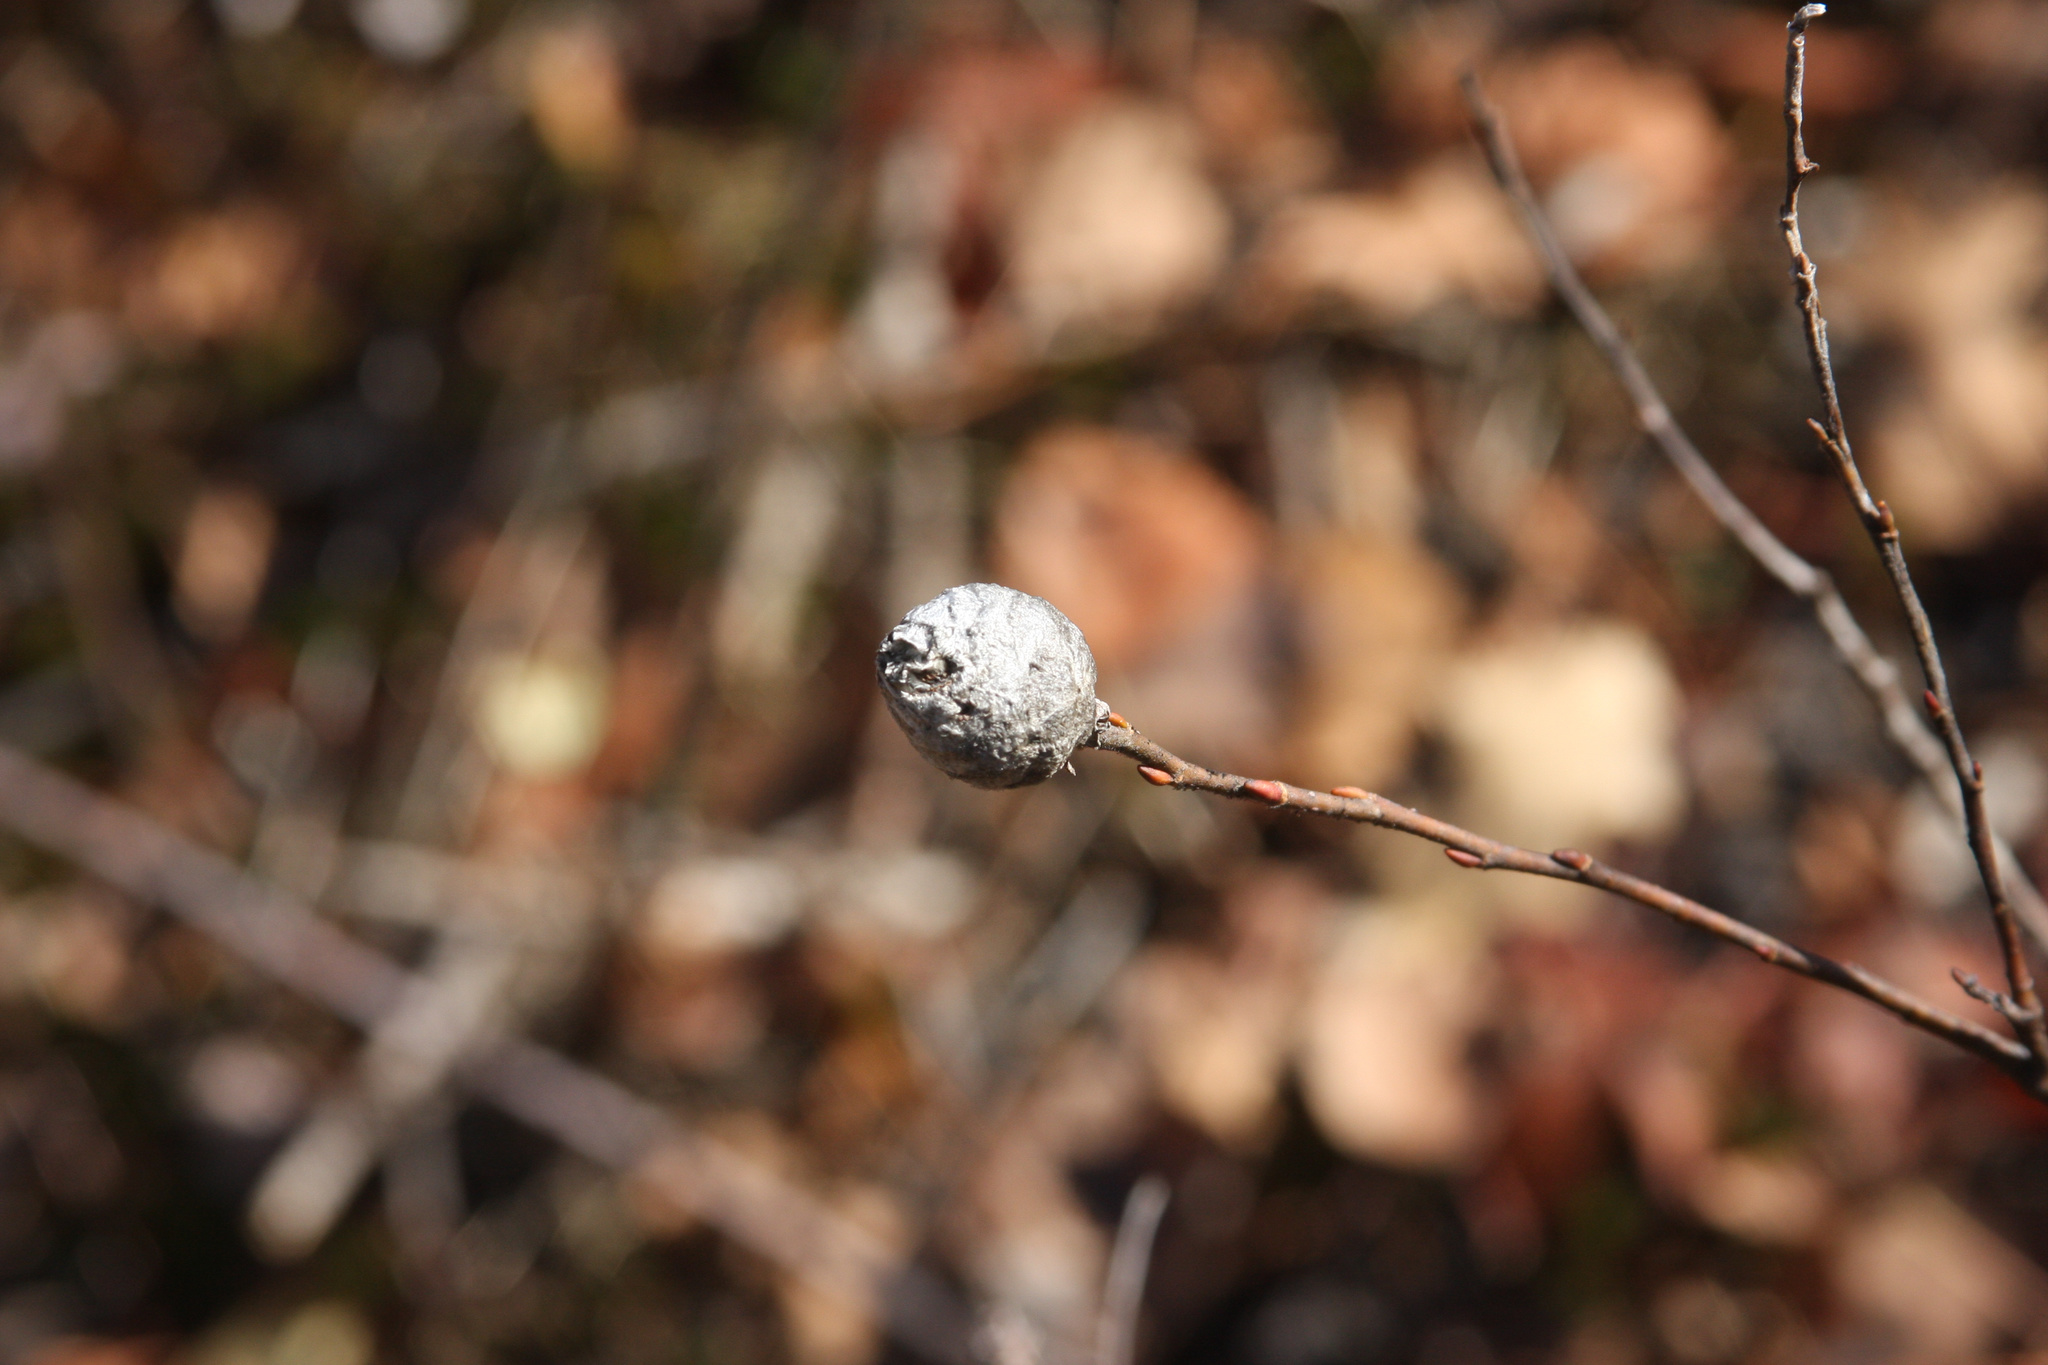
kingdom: Animalia
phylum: Arthropoda
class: Insecta
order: Diptera
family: Cecidomyiidae
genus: Rabdophaga
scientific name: Rabdophaga strobiloides
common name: Willow pinecone gall midge
